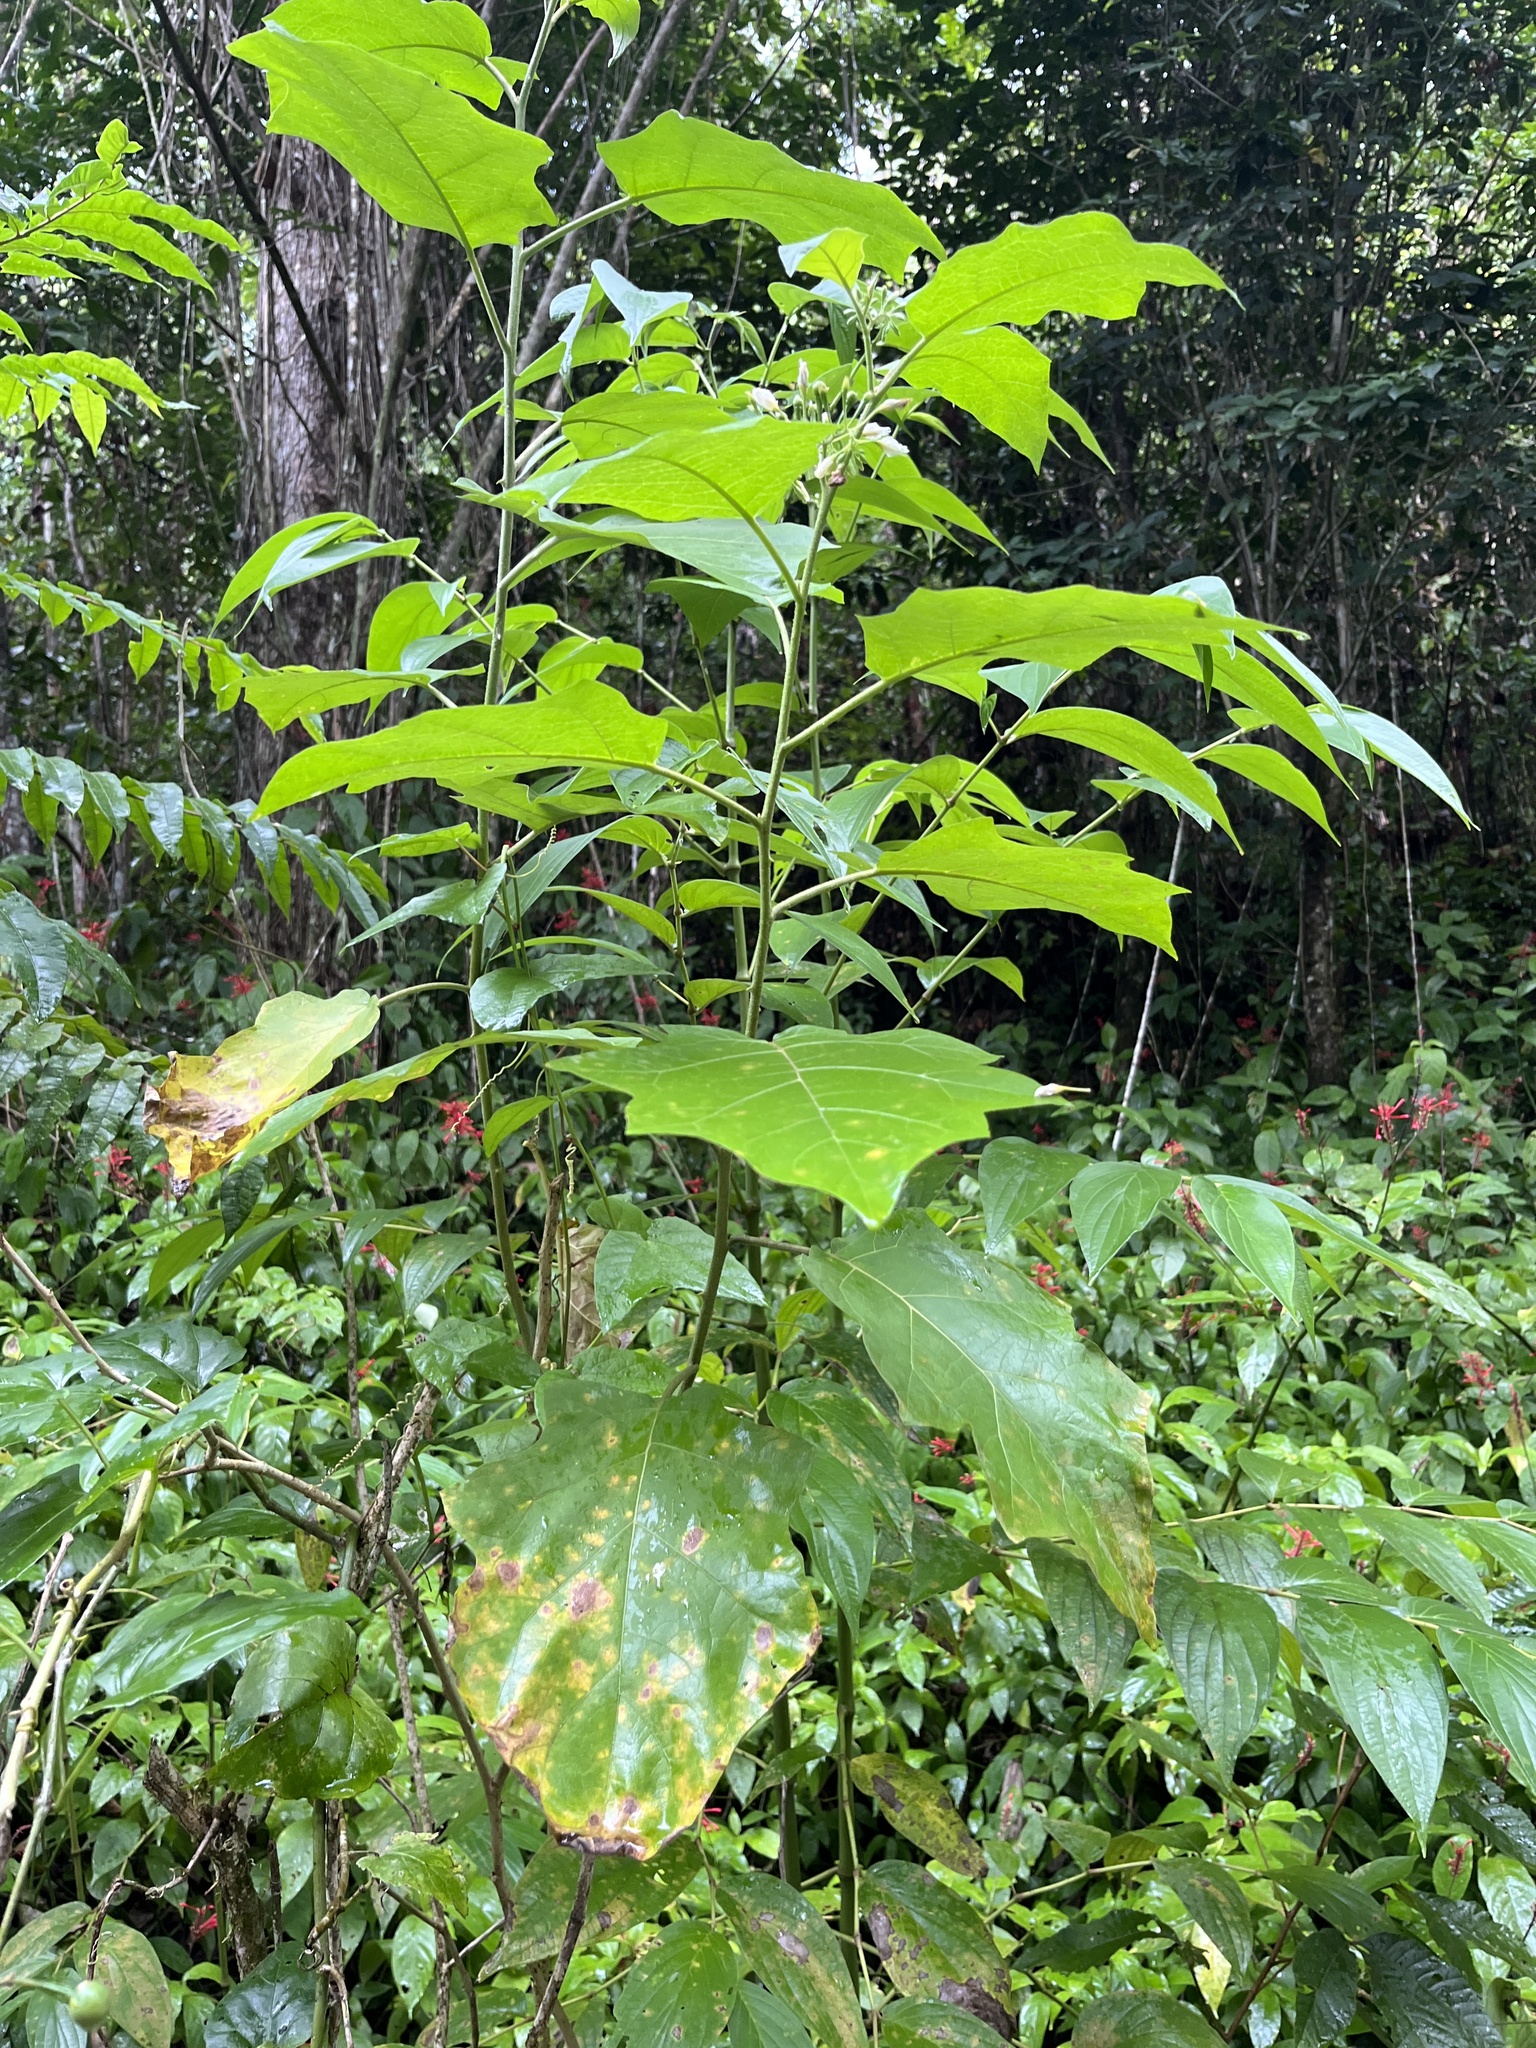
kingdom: Plantae
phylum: Tracheophyta
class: Magnoliopsida
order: Solanales
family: Solanaceae
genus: Solanum
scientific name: Solanum torvum
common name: Turkey berry
